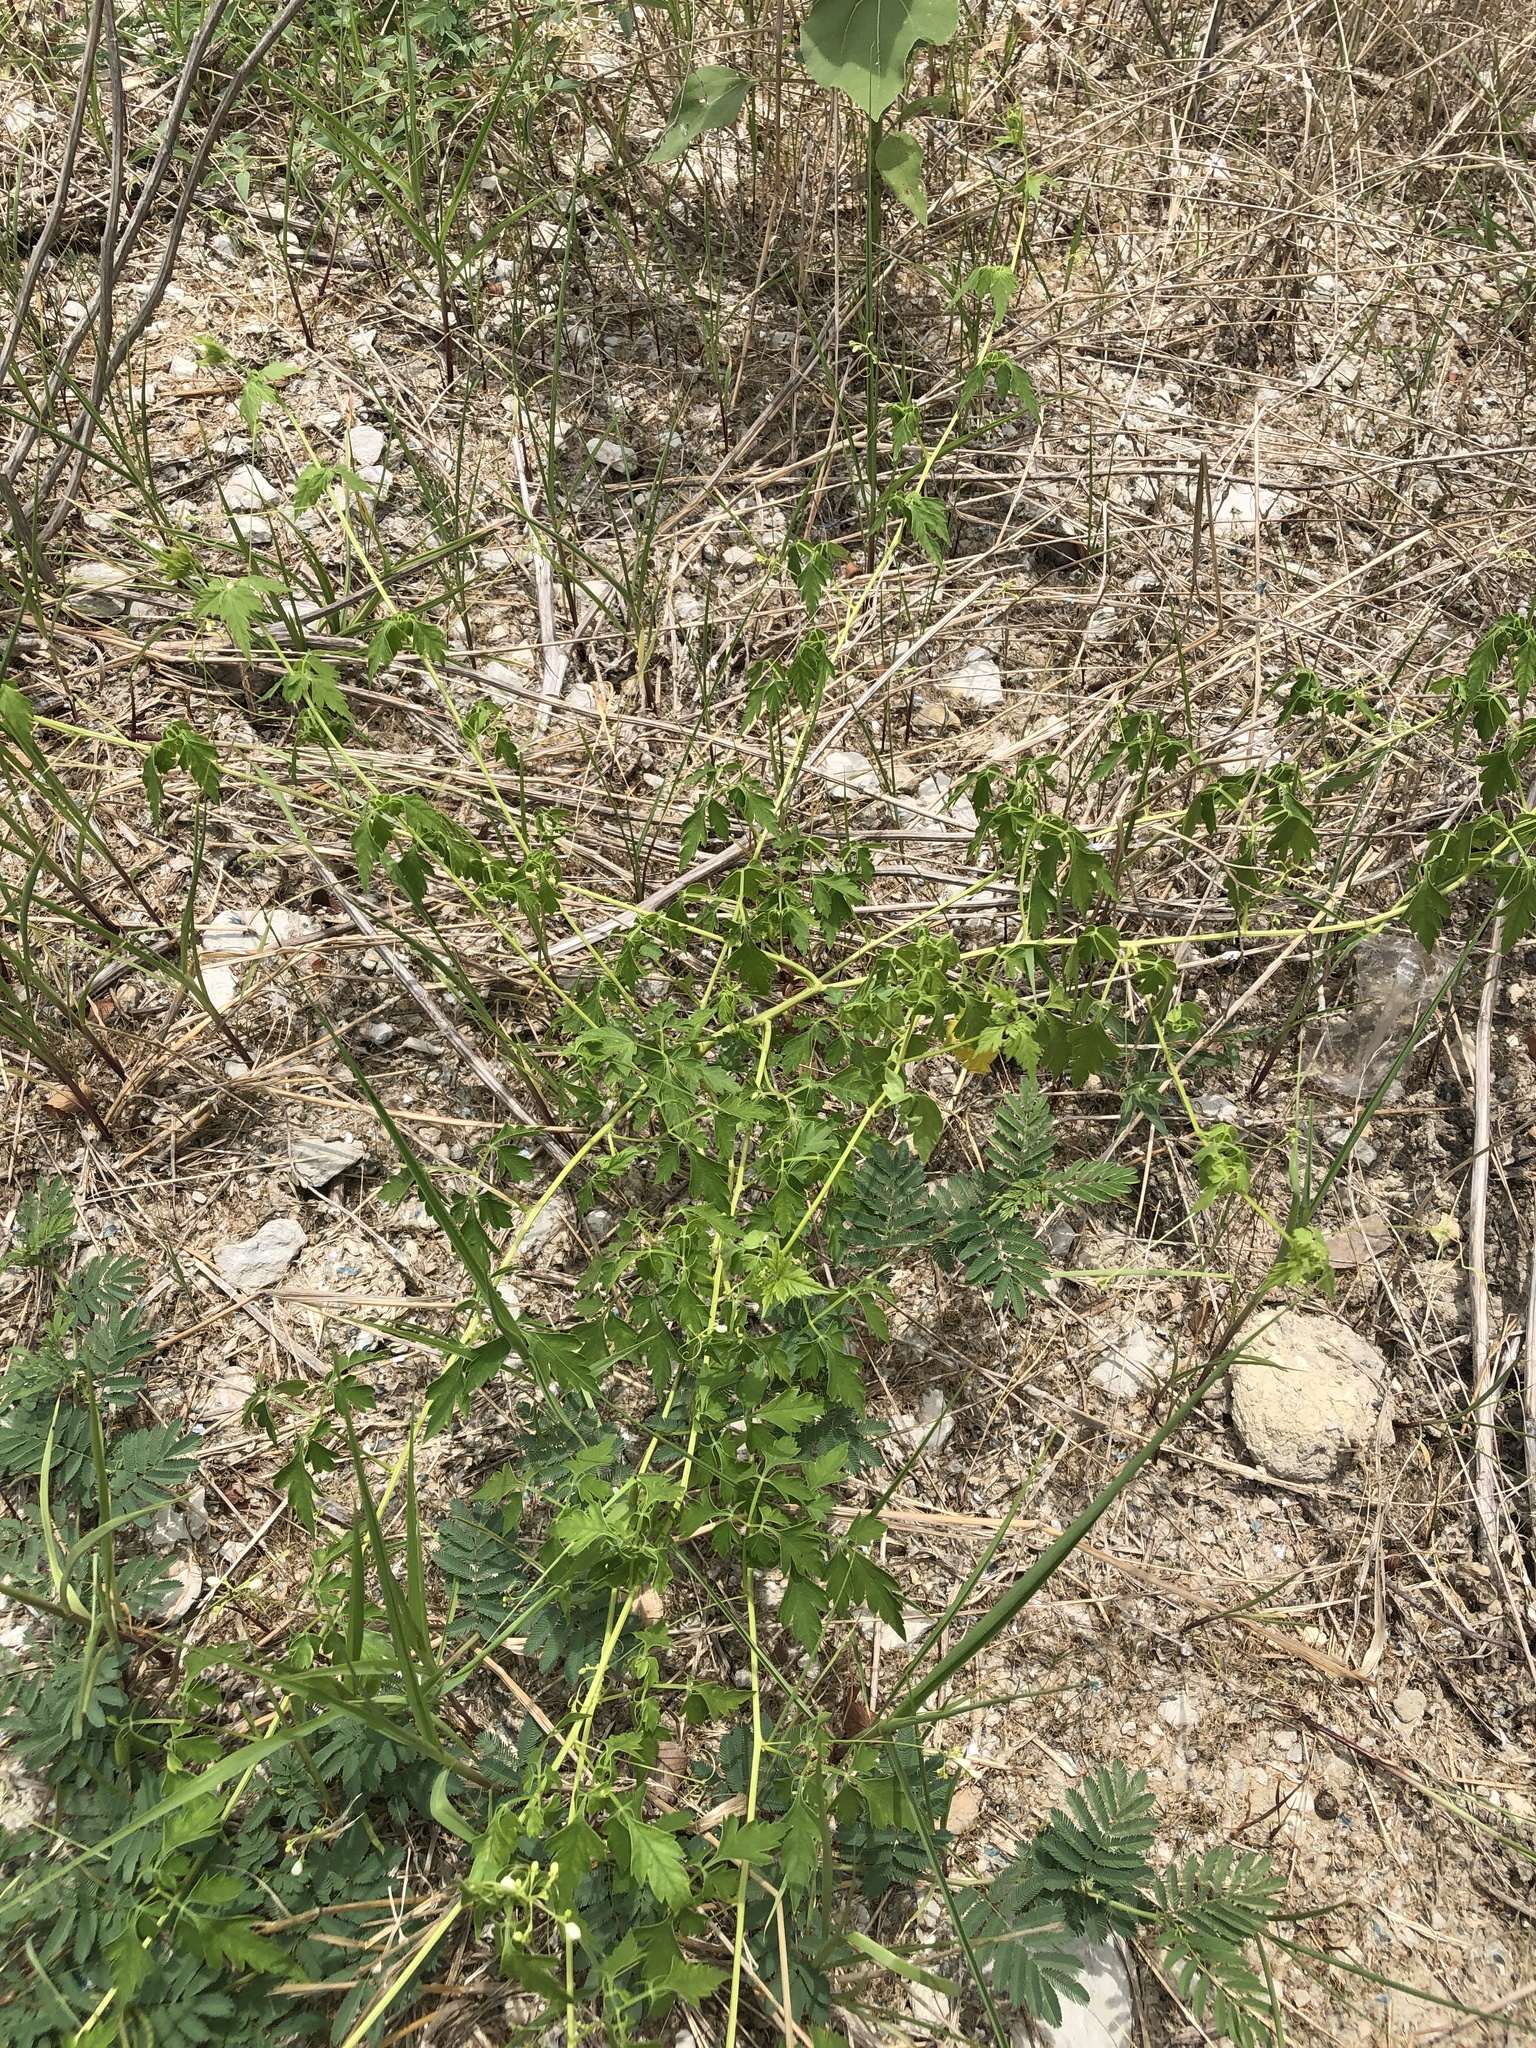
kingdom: Plantae
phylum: Tracheophyta
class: Magnoliopsida
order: Sapindales
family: Sapindaceae
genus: Cardiospermum
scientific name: Cardiospermum halicacabum
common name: Balloon vine
